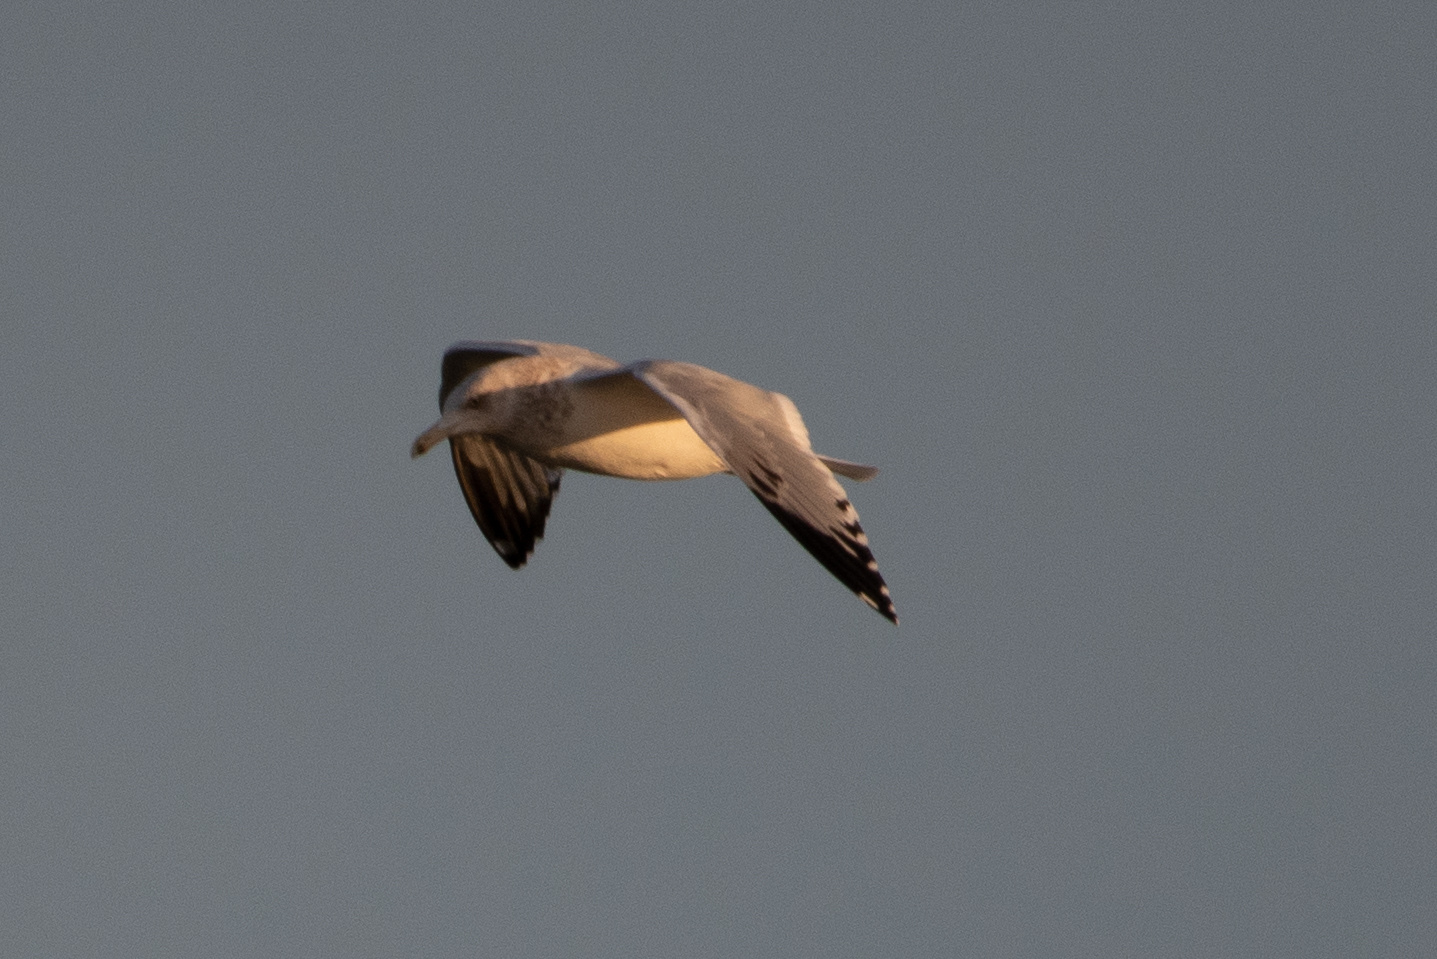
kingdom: Animalia
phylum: Chordata
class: Aves
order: Charadriiformes
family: Laridae
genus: Larus
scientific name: Larus argentatus
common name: Herring gull
